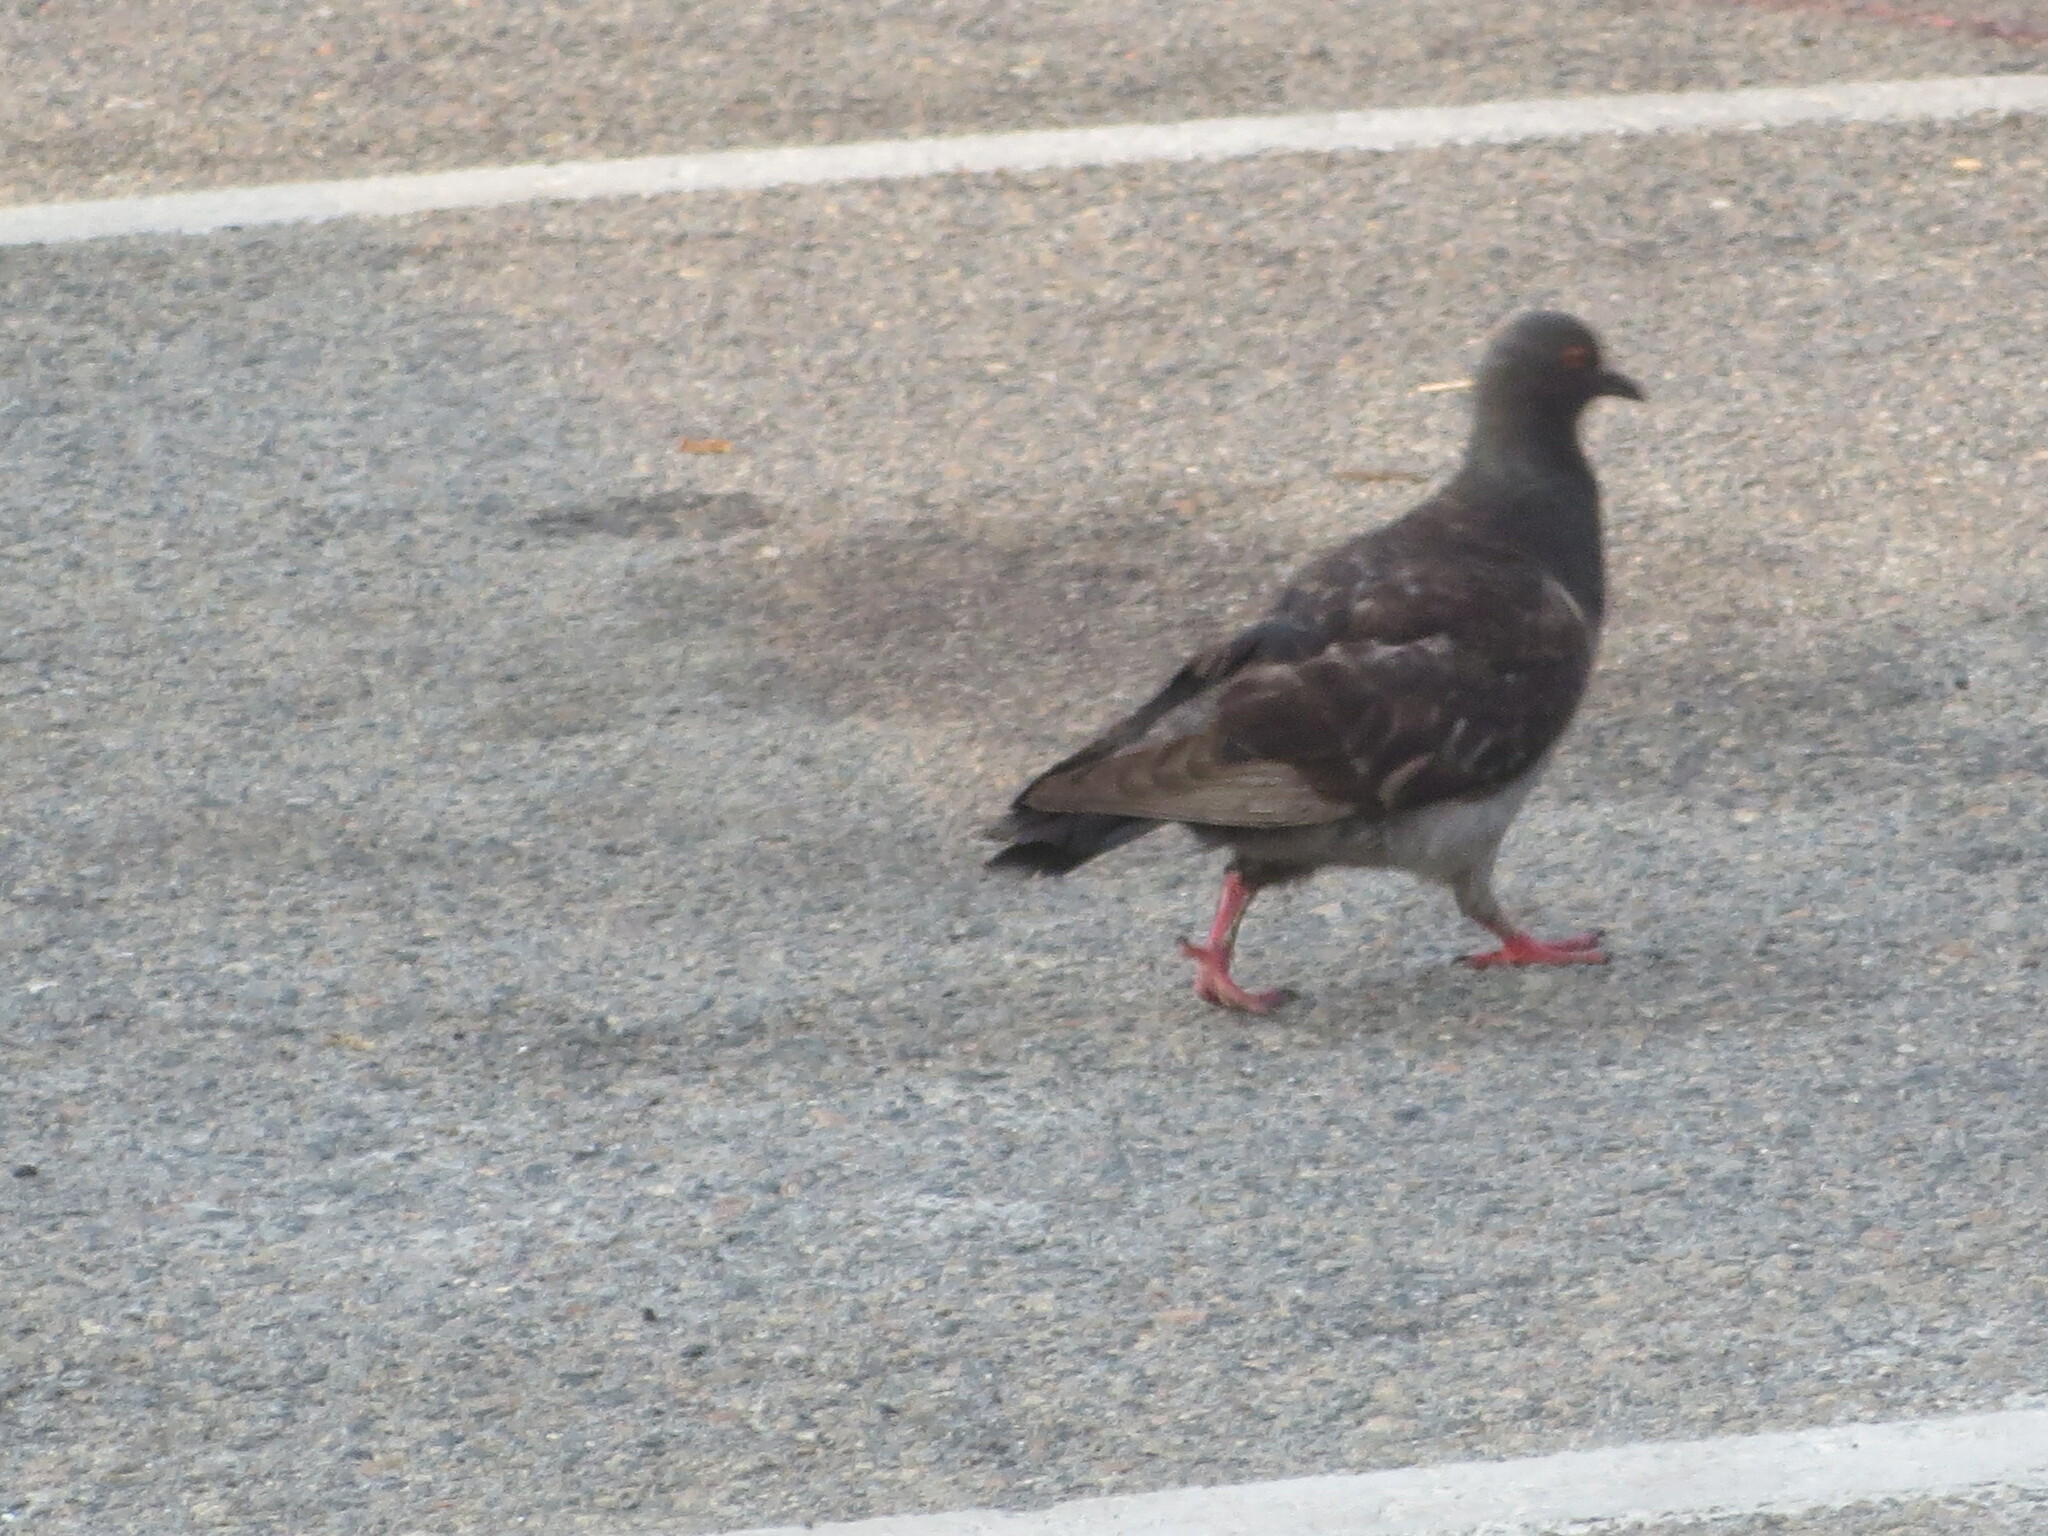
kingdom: Animalia
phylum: Chordata
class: Aves
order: Columbiformes
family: Columbidae
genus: Columba
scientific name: Columba livia
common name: Rock pigeon
